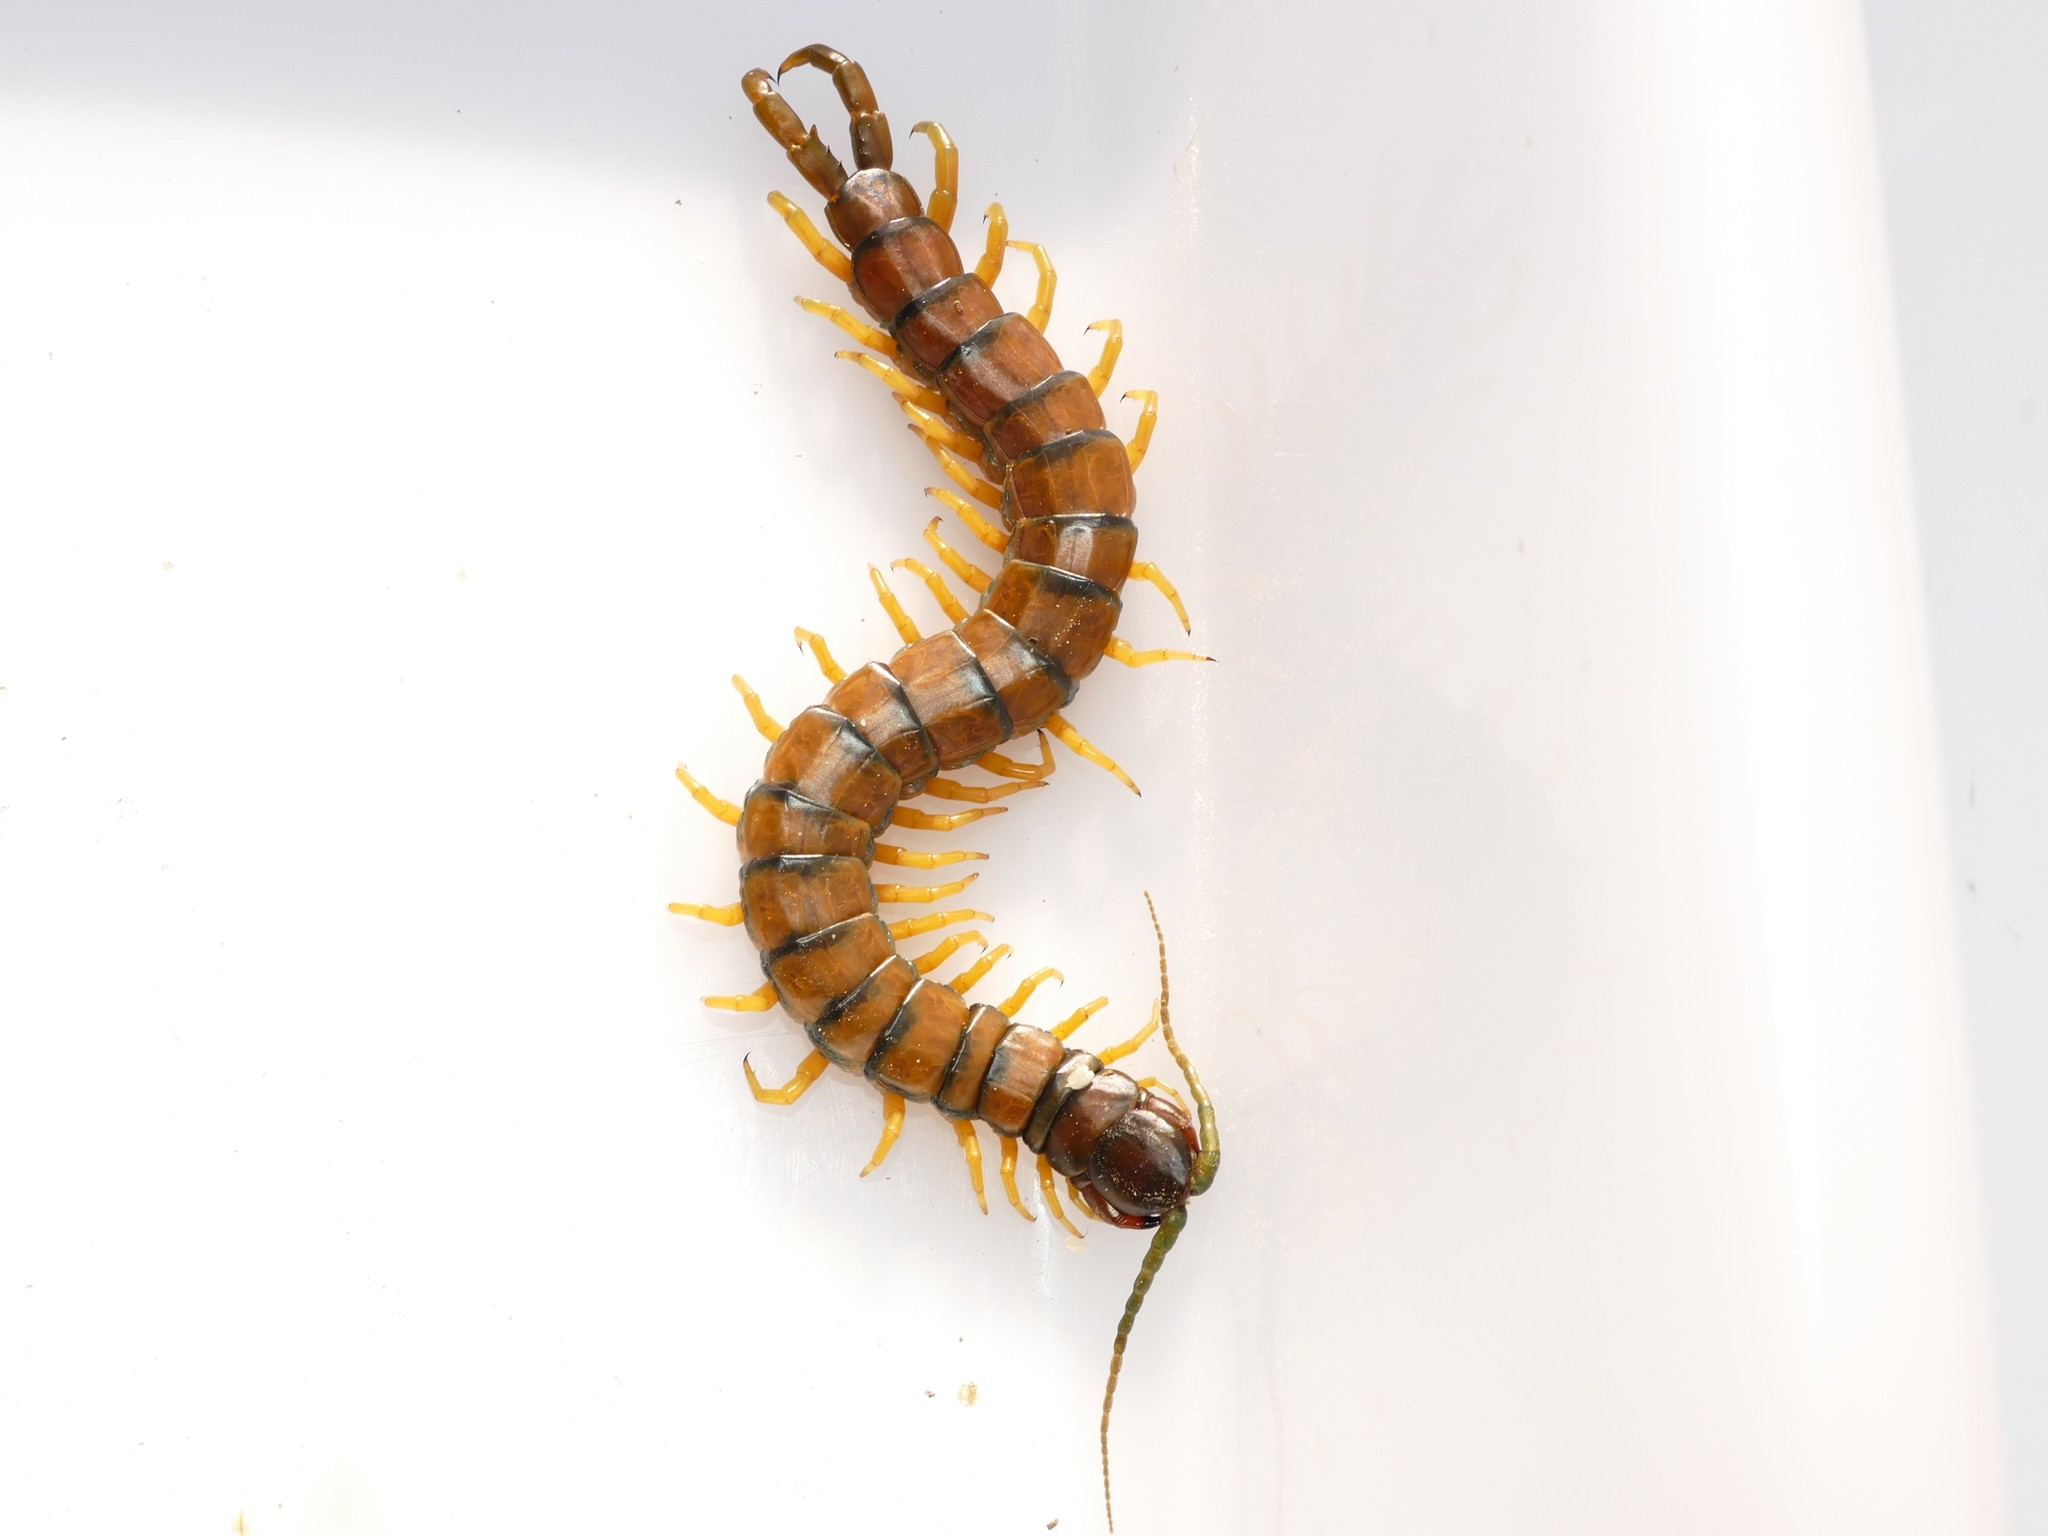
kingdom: Animalia
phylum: Arthropoda
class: Chilopoda
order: Scolopendromorpha
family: Scolopendridae
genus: Scolopendra
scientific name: Scolopendra cingulata
